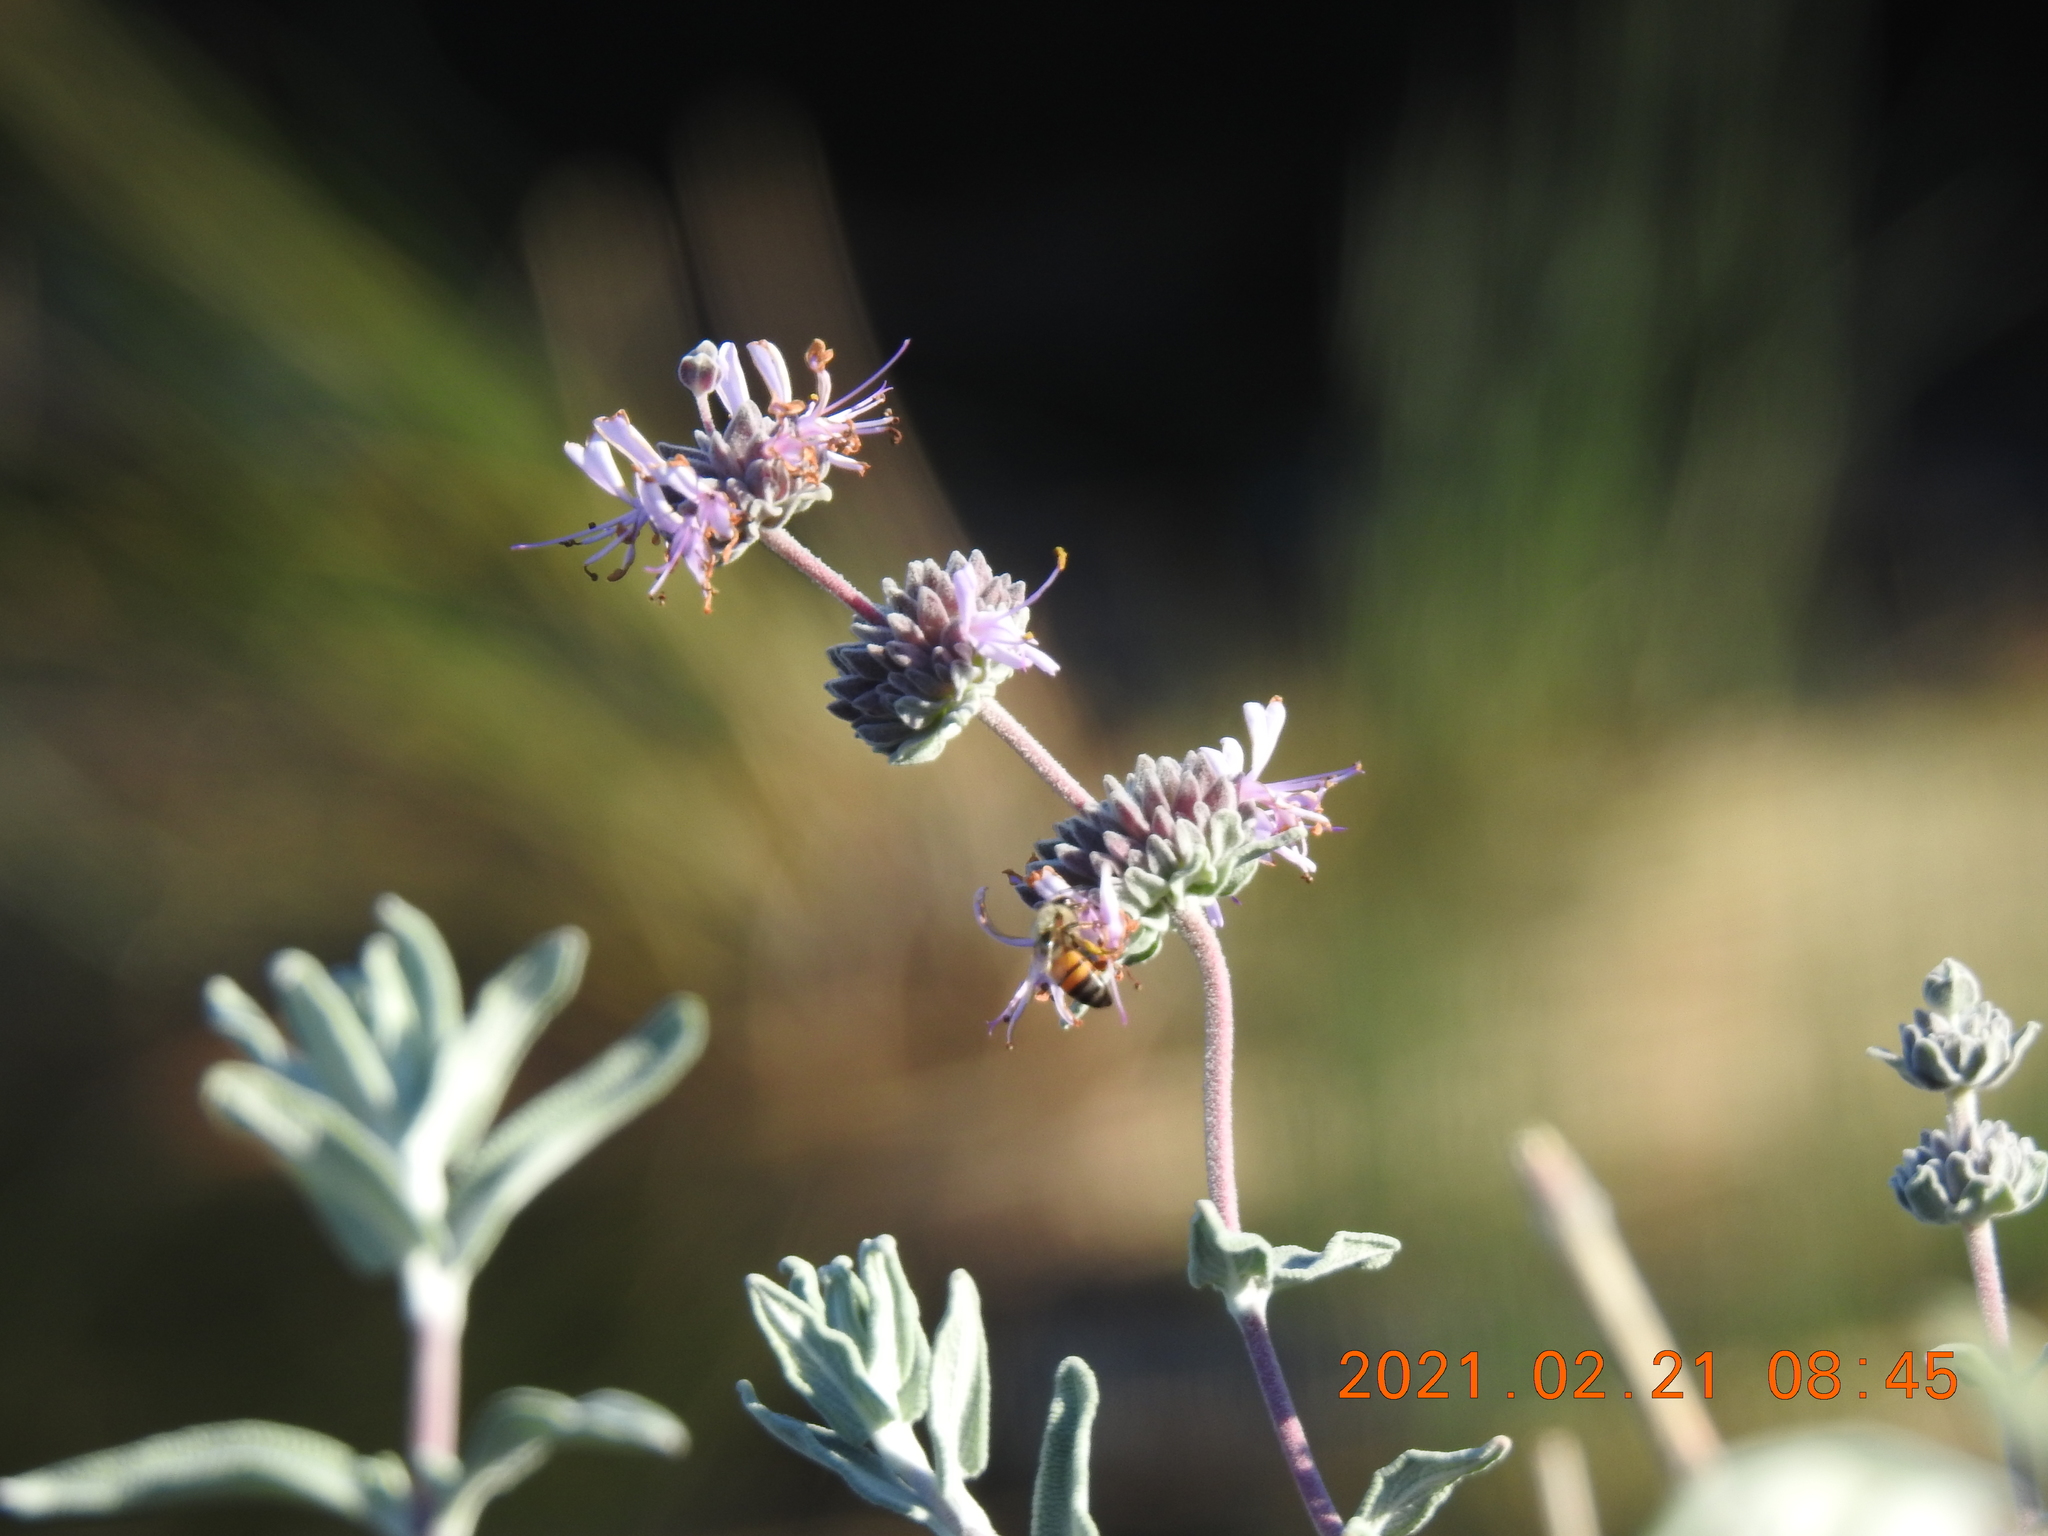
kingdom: Plantae
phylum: Tracheophyta
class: Magnoliopsida
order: Lamiales
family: Lamiaceae
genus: Salvia
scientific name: Salvia leucophylla
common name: Purple sage
